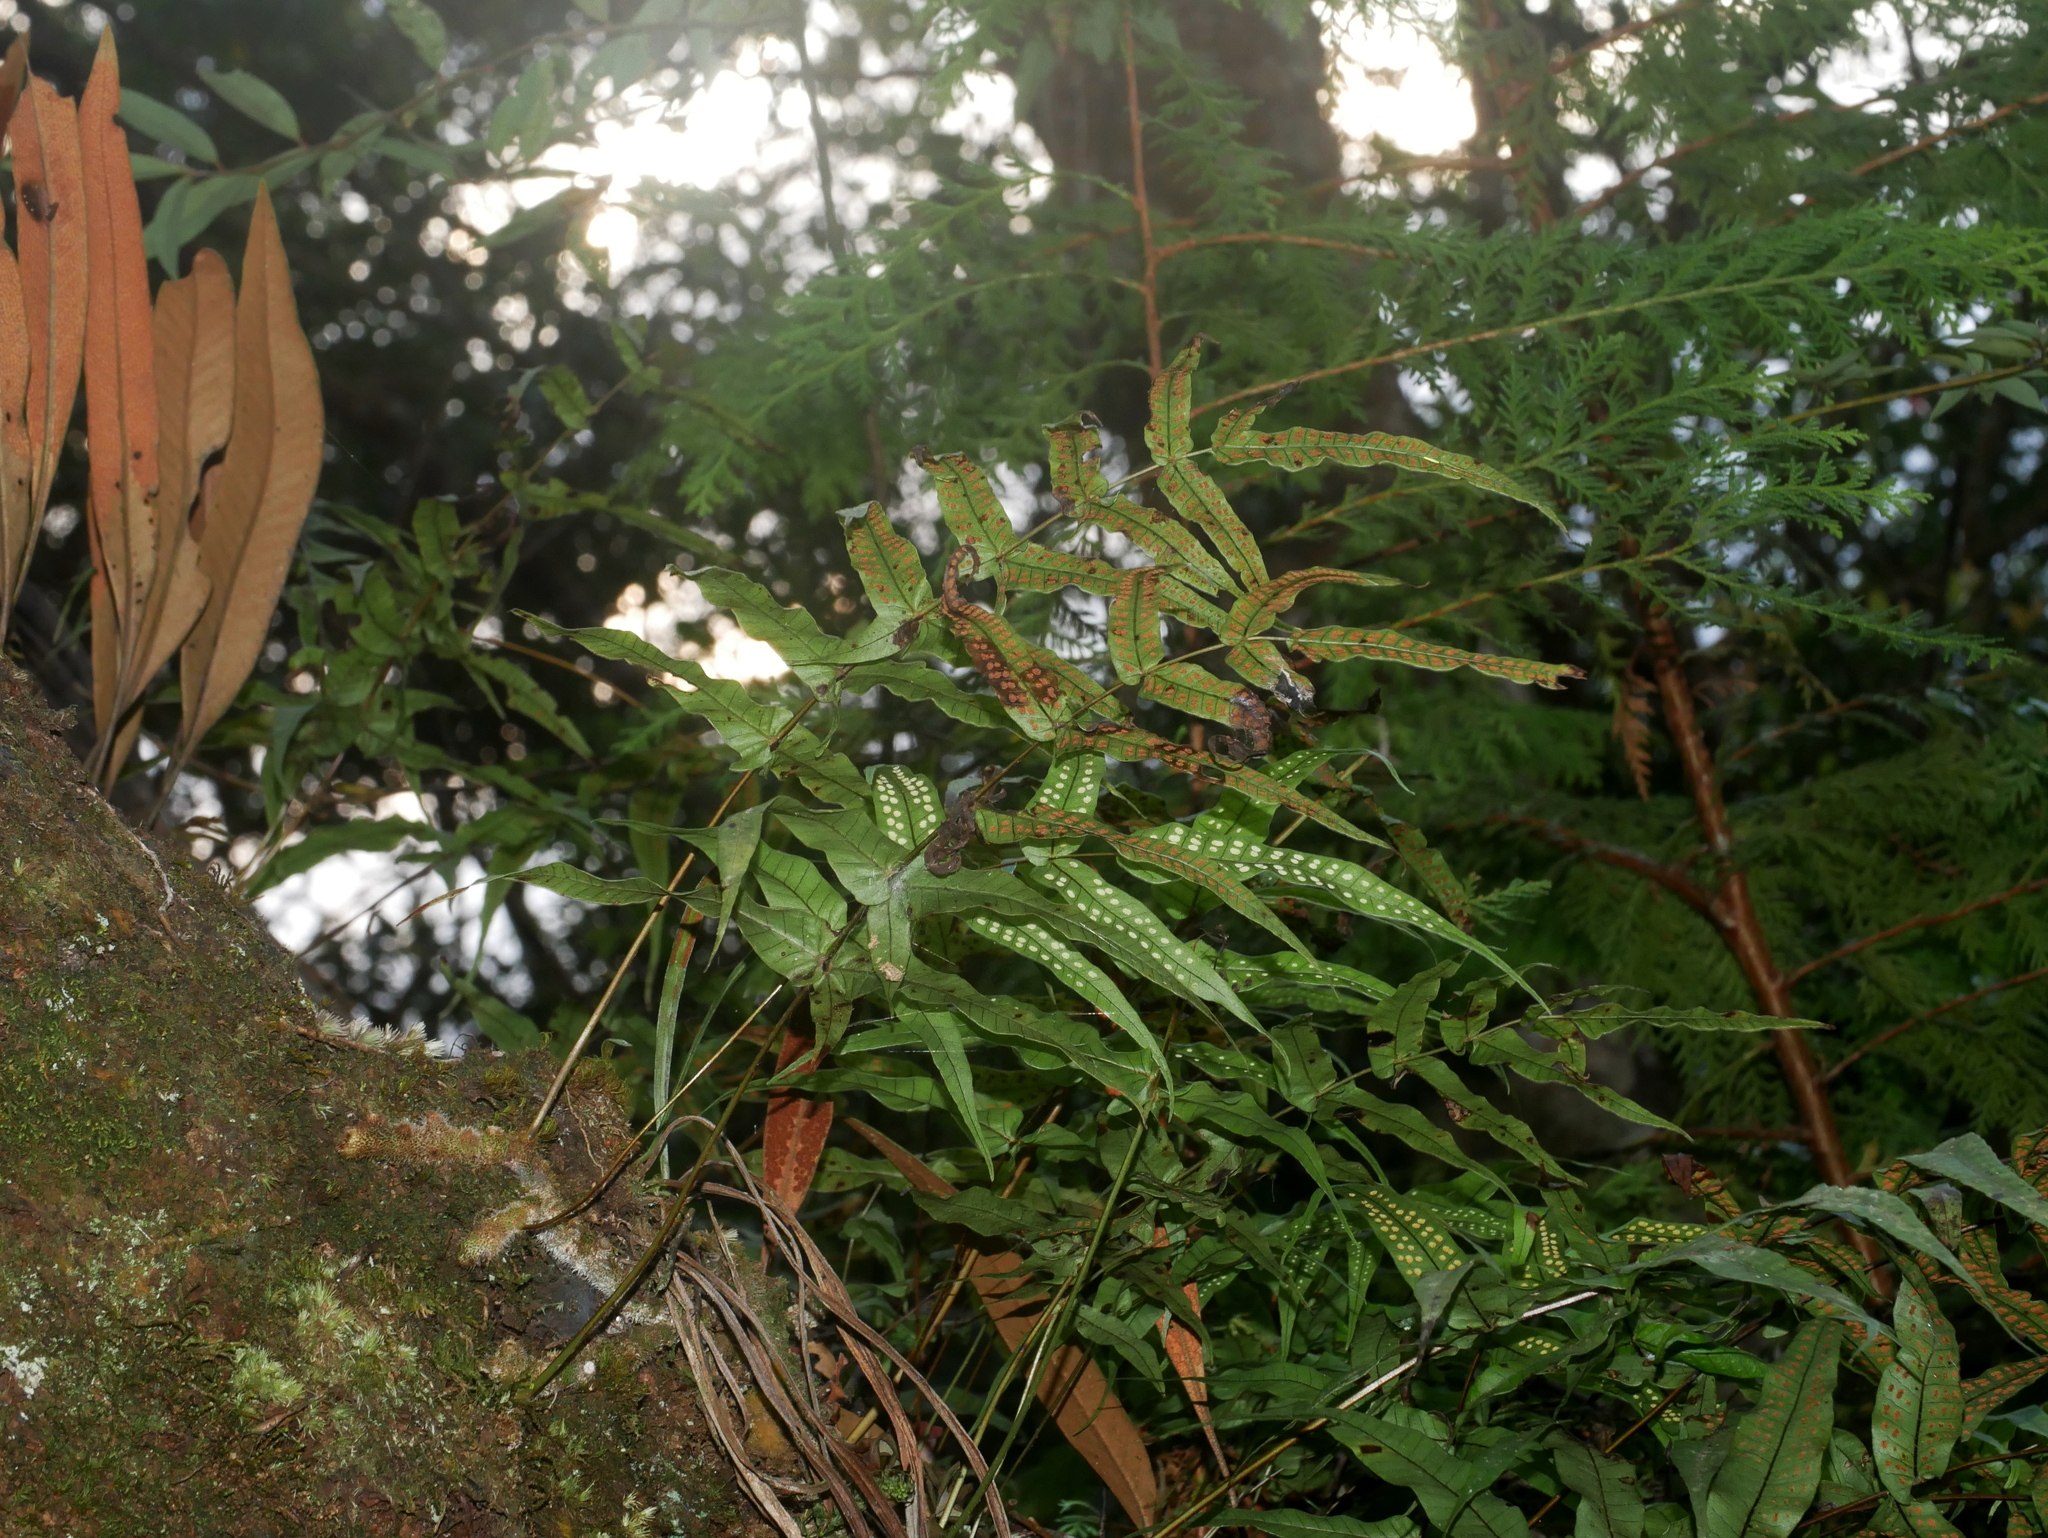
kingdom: Plantae
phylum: Tracheophyta
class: Polypodiopsida
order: Polypodiales
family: Polypodiaceae
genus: Selliguea
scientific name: Selliguea lehmannii
